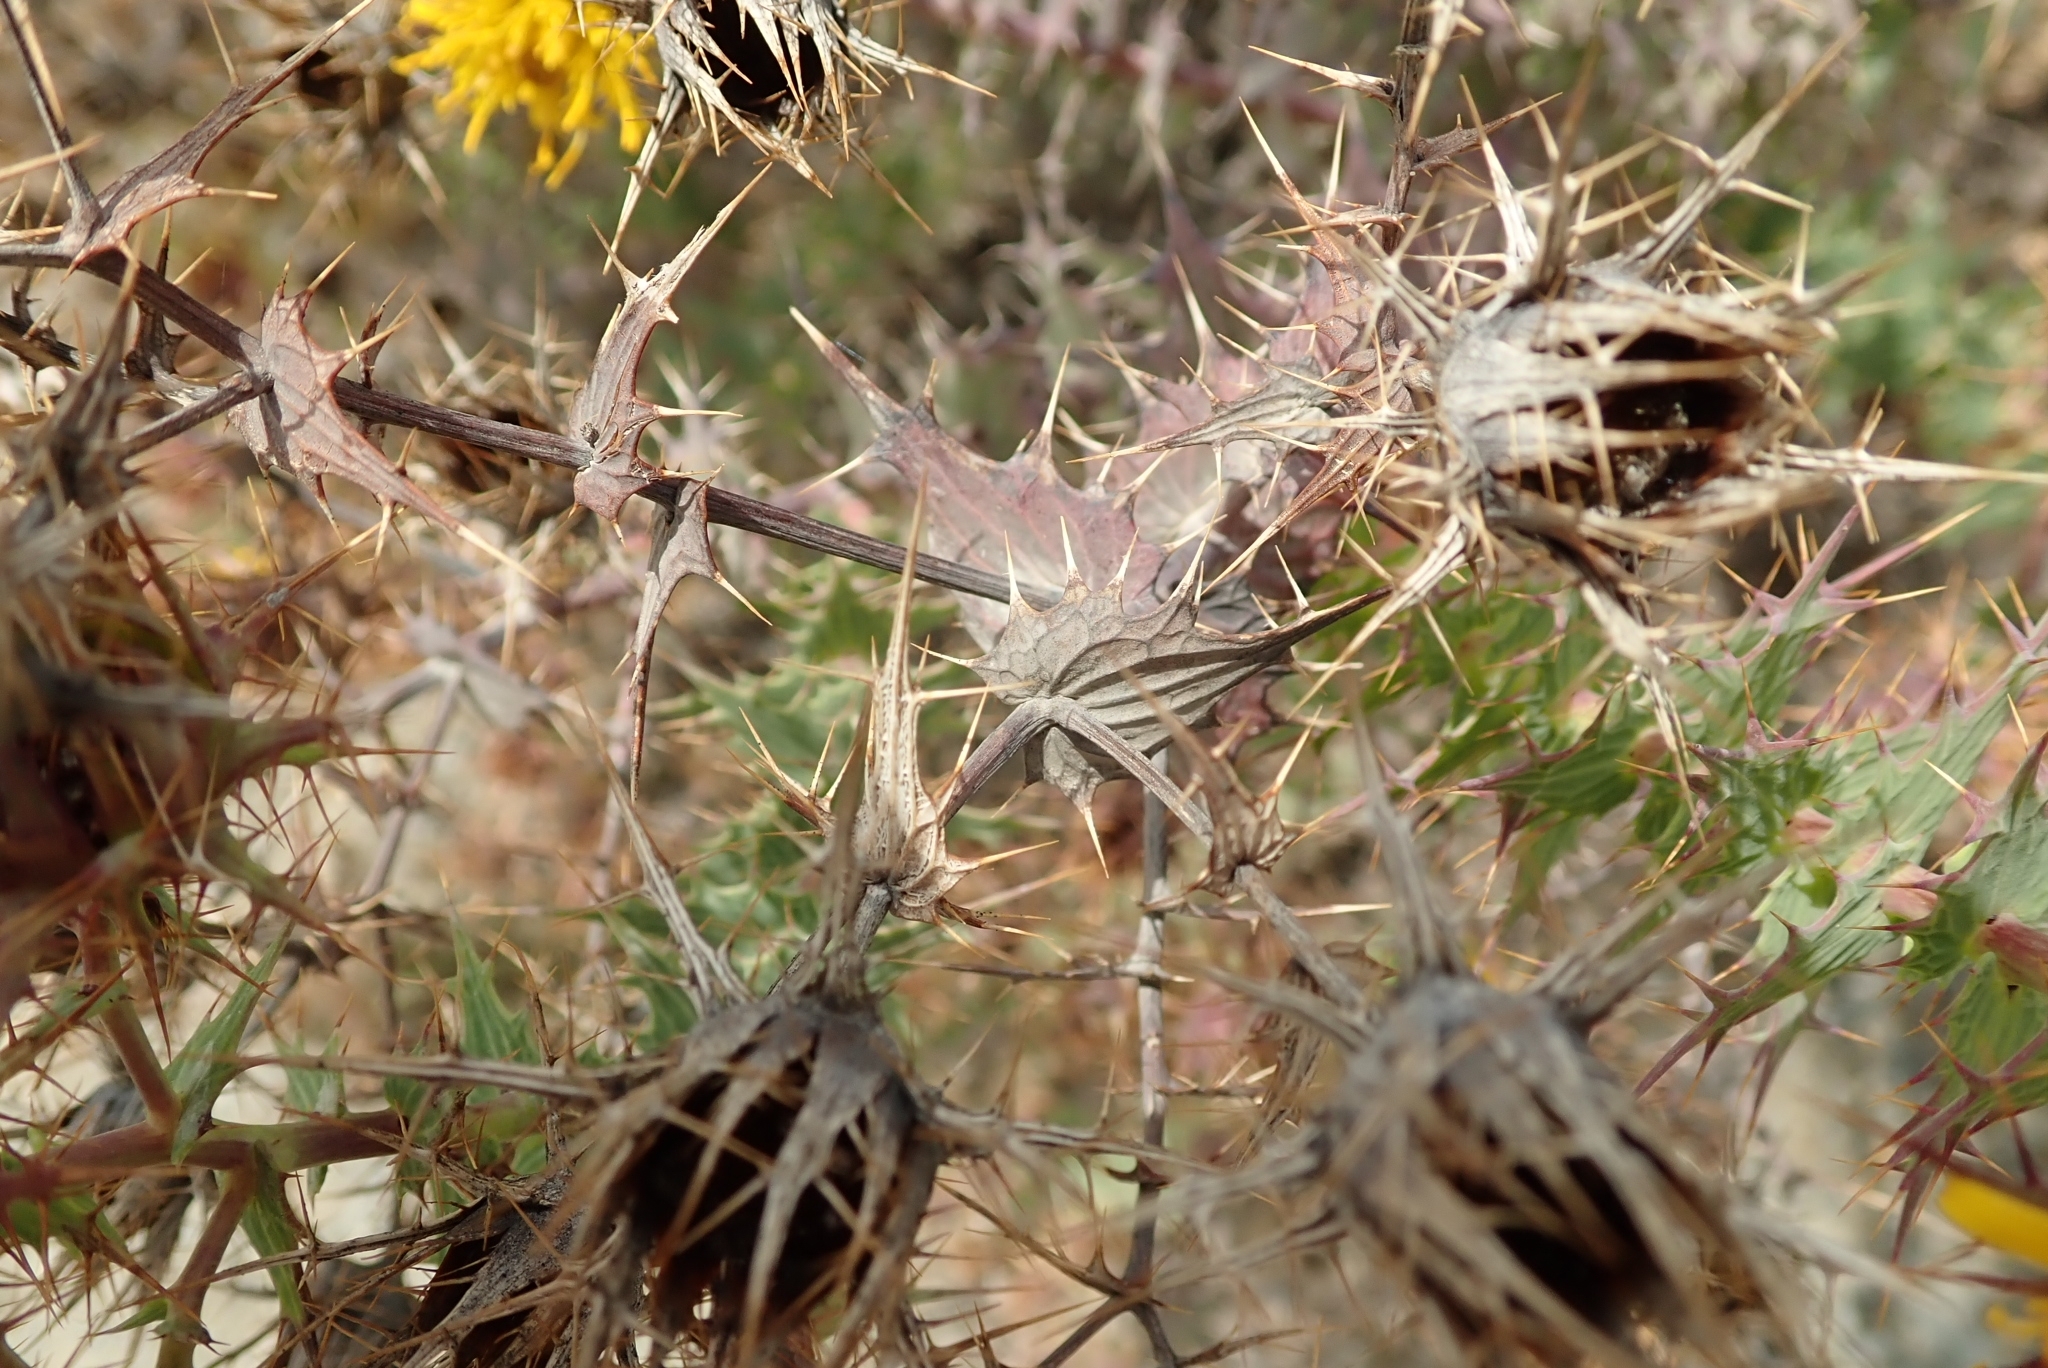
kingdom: Plantae
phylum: Tracheophyta
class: Magnoliopsida
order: Asterales
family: Asteraceae
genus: Berkheya
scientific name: Berkheya cruciata
